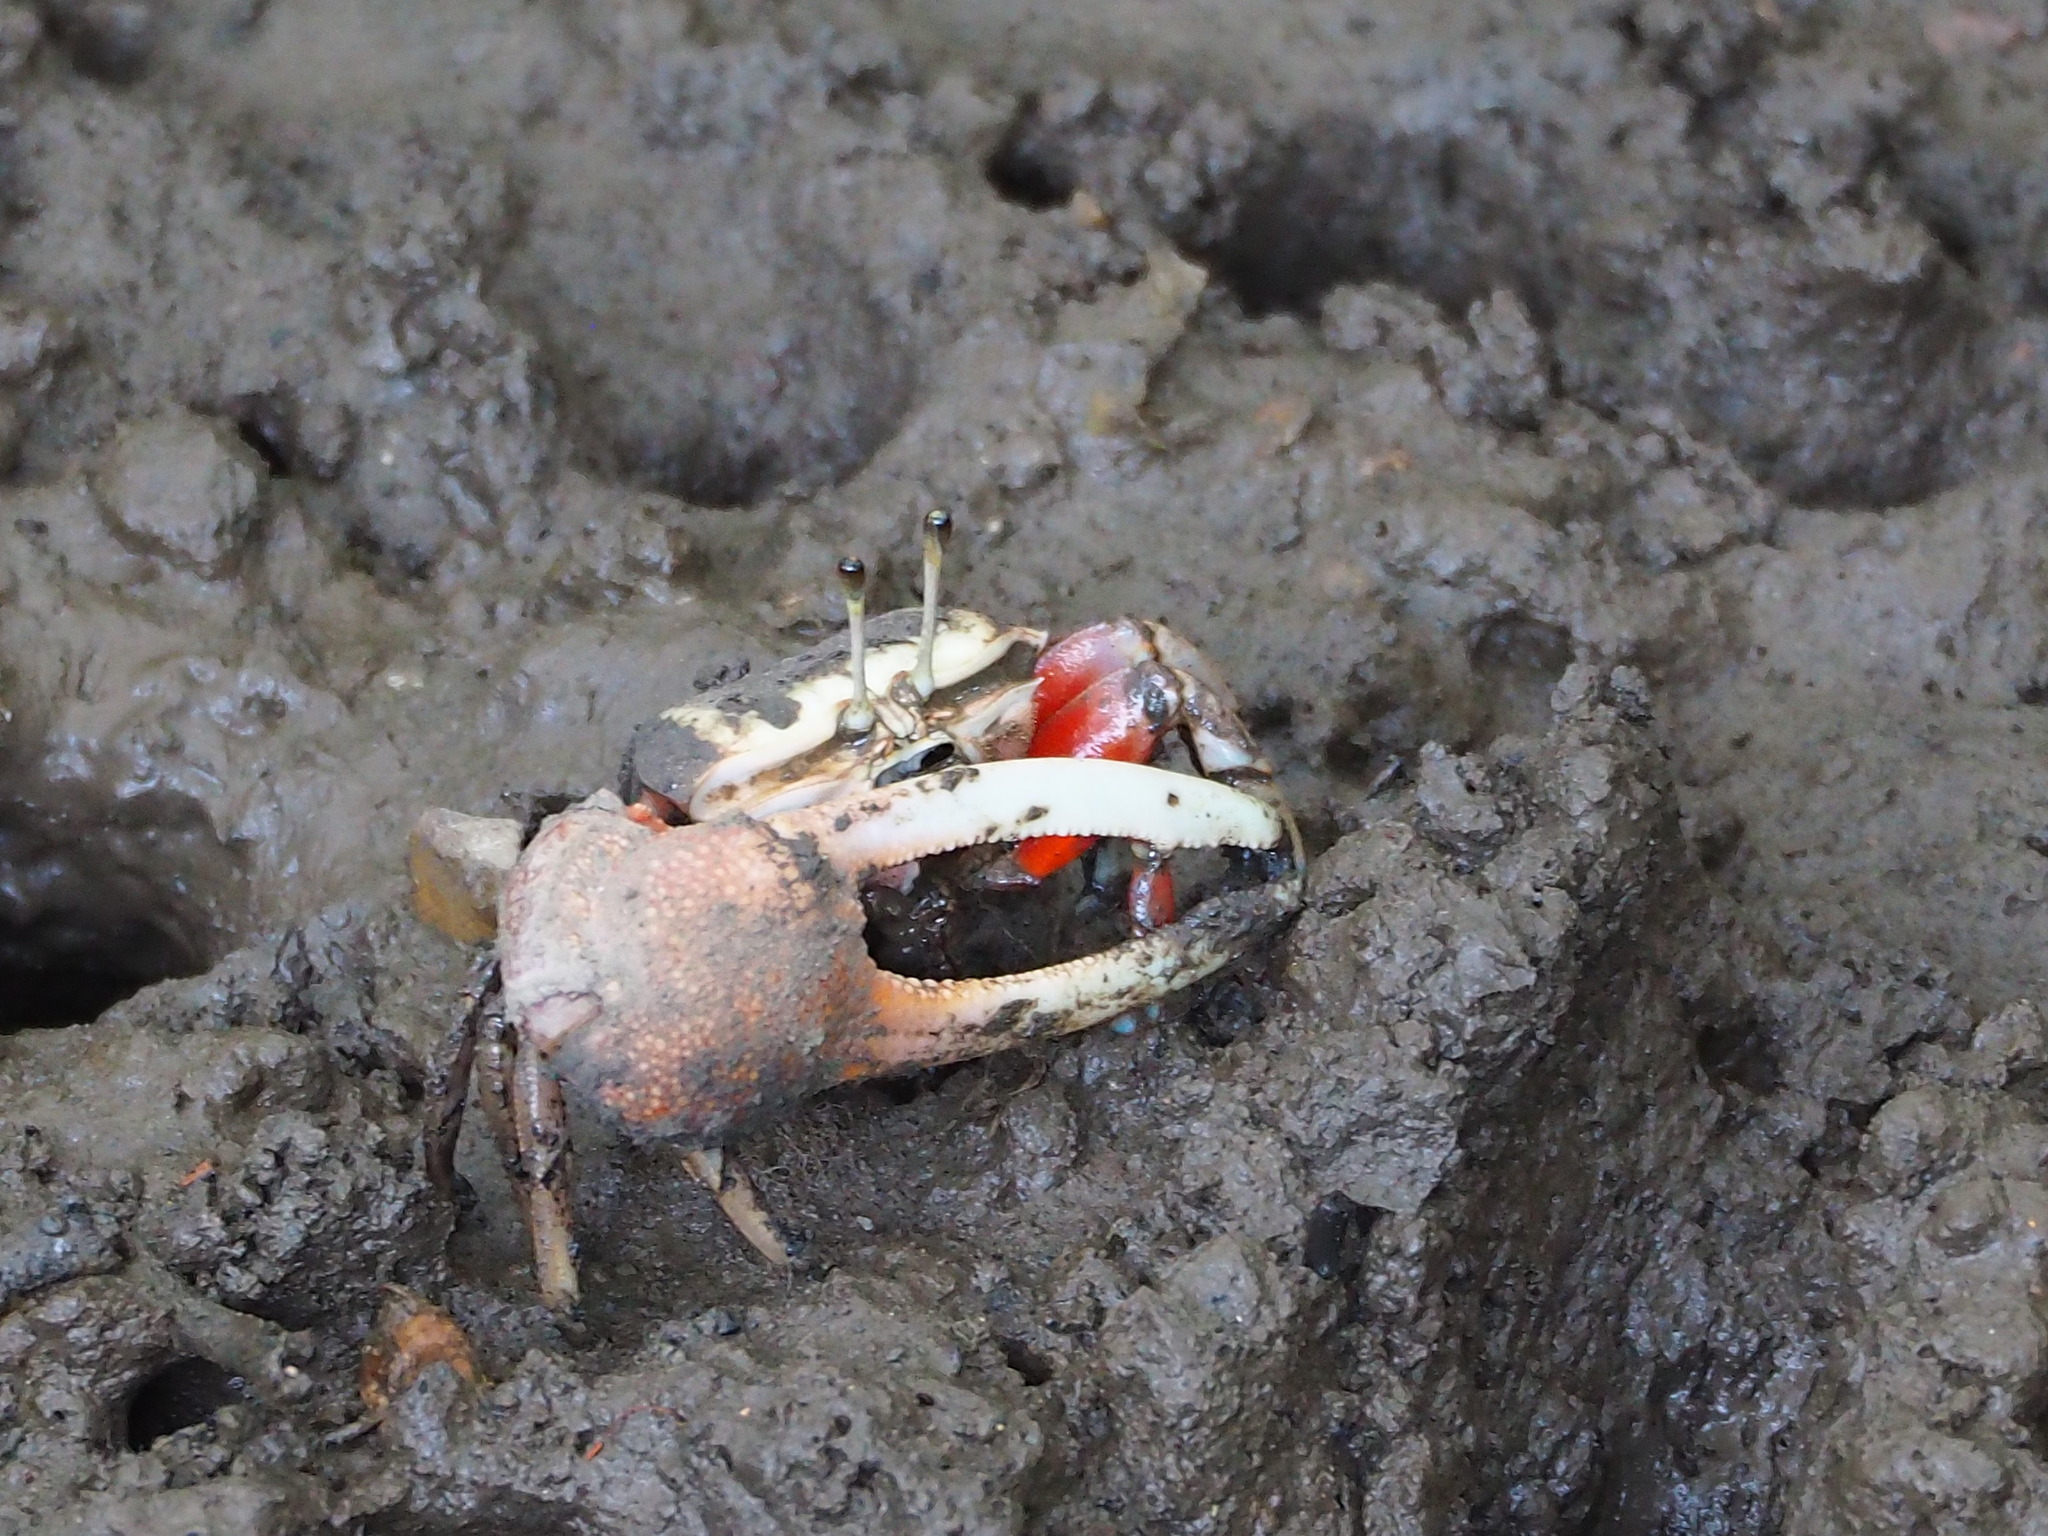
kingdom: Animalia
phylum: Arthropoda
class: Malacostraca
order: Decapoda
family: Ocypodidae
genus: Tubuca
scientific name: Tubuca arcuata
